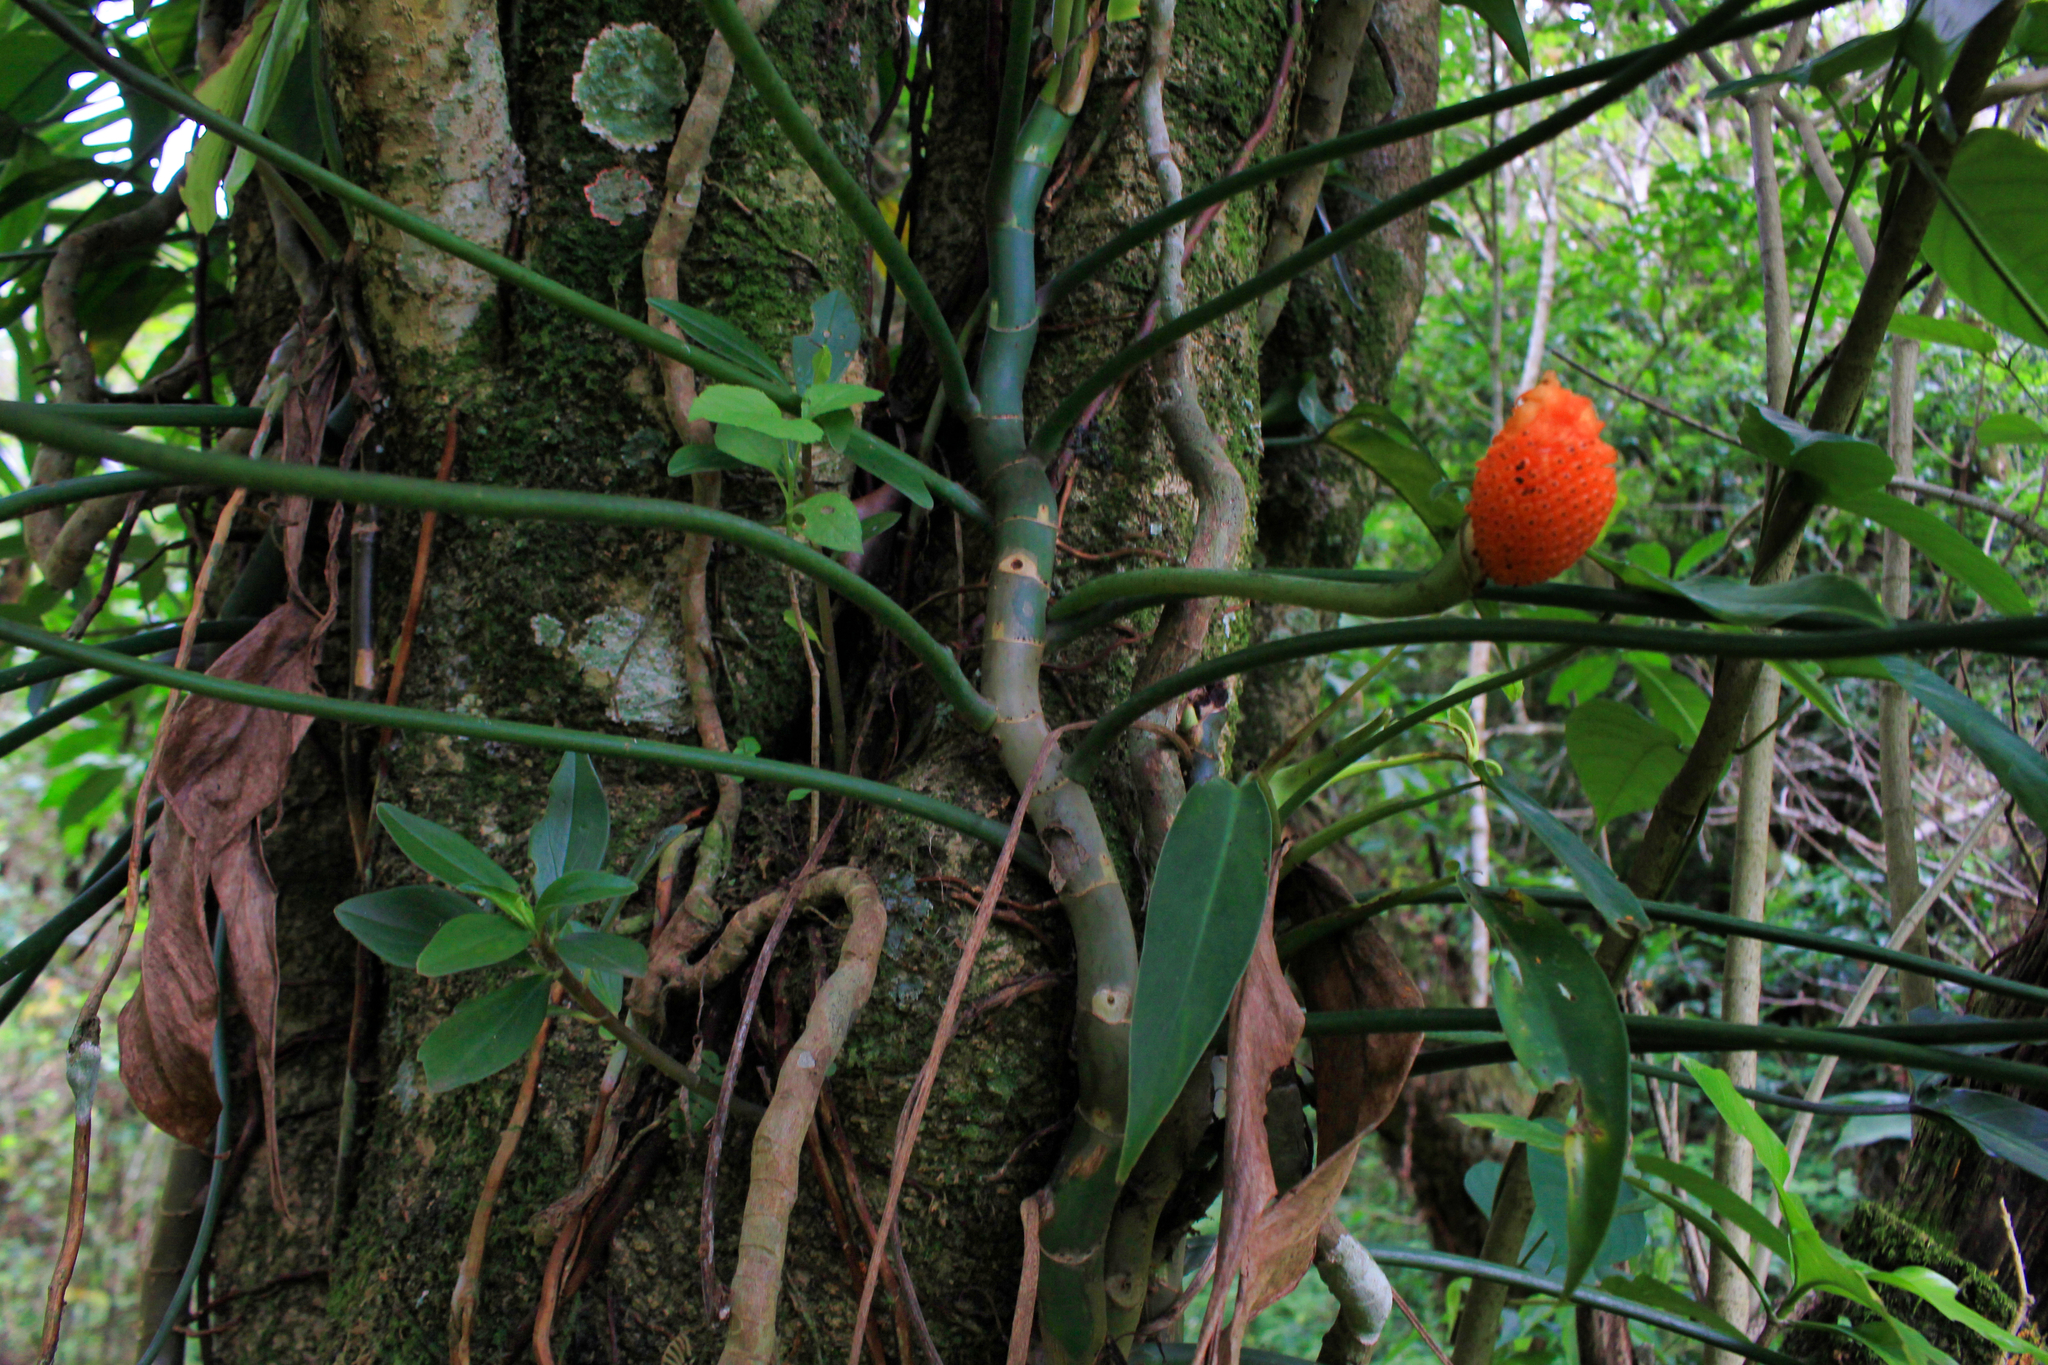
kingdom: Plantae
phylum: Tracheophyta
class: Liliopsida
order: Alismatales
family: Araceae
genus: Philodendron
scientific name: Philodendron anisotomum
